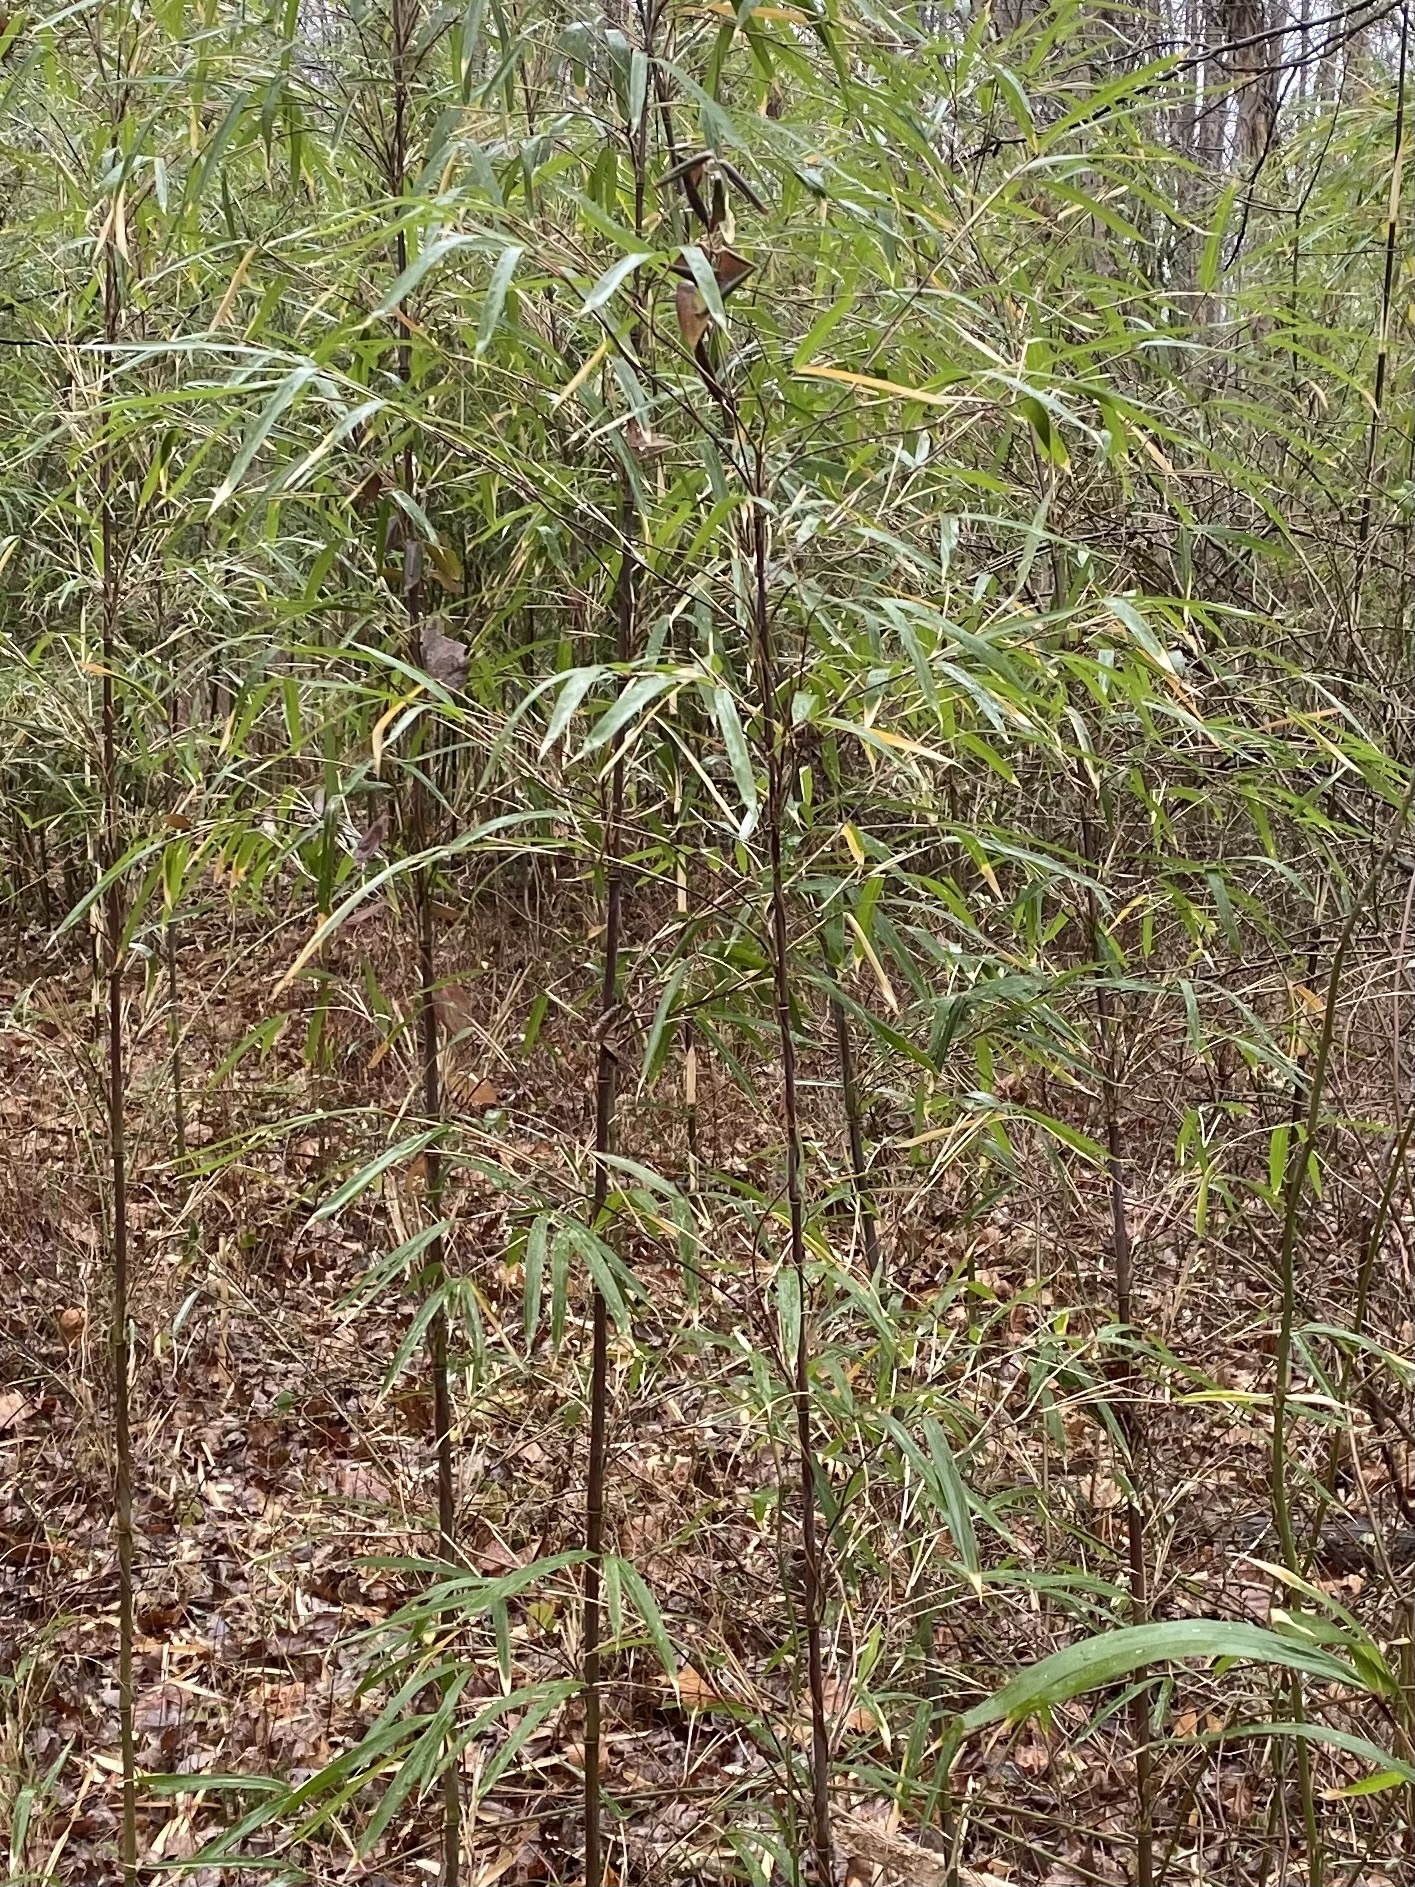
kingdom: Plantae
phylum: Tracheophyta
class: Liliopsida
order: Poales
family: Poaceae
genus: Arundinaria
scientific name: Arundinaria gigantea
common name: Giant cane
